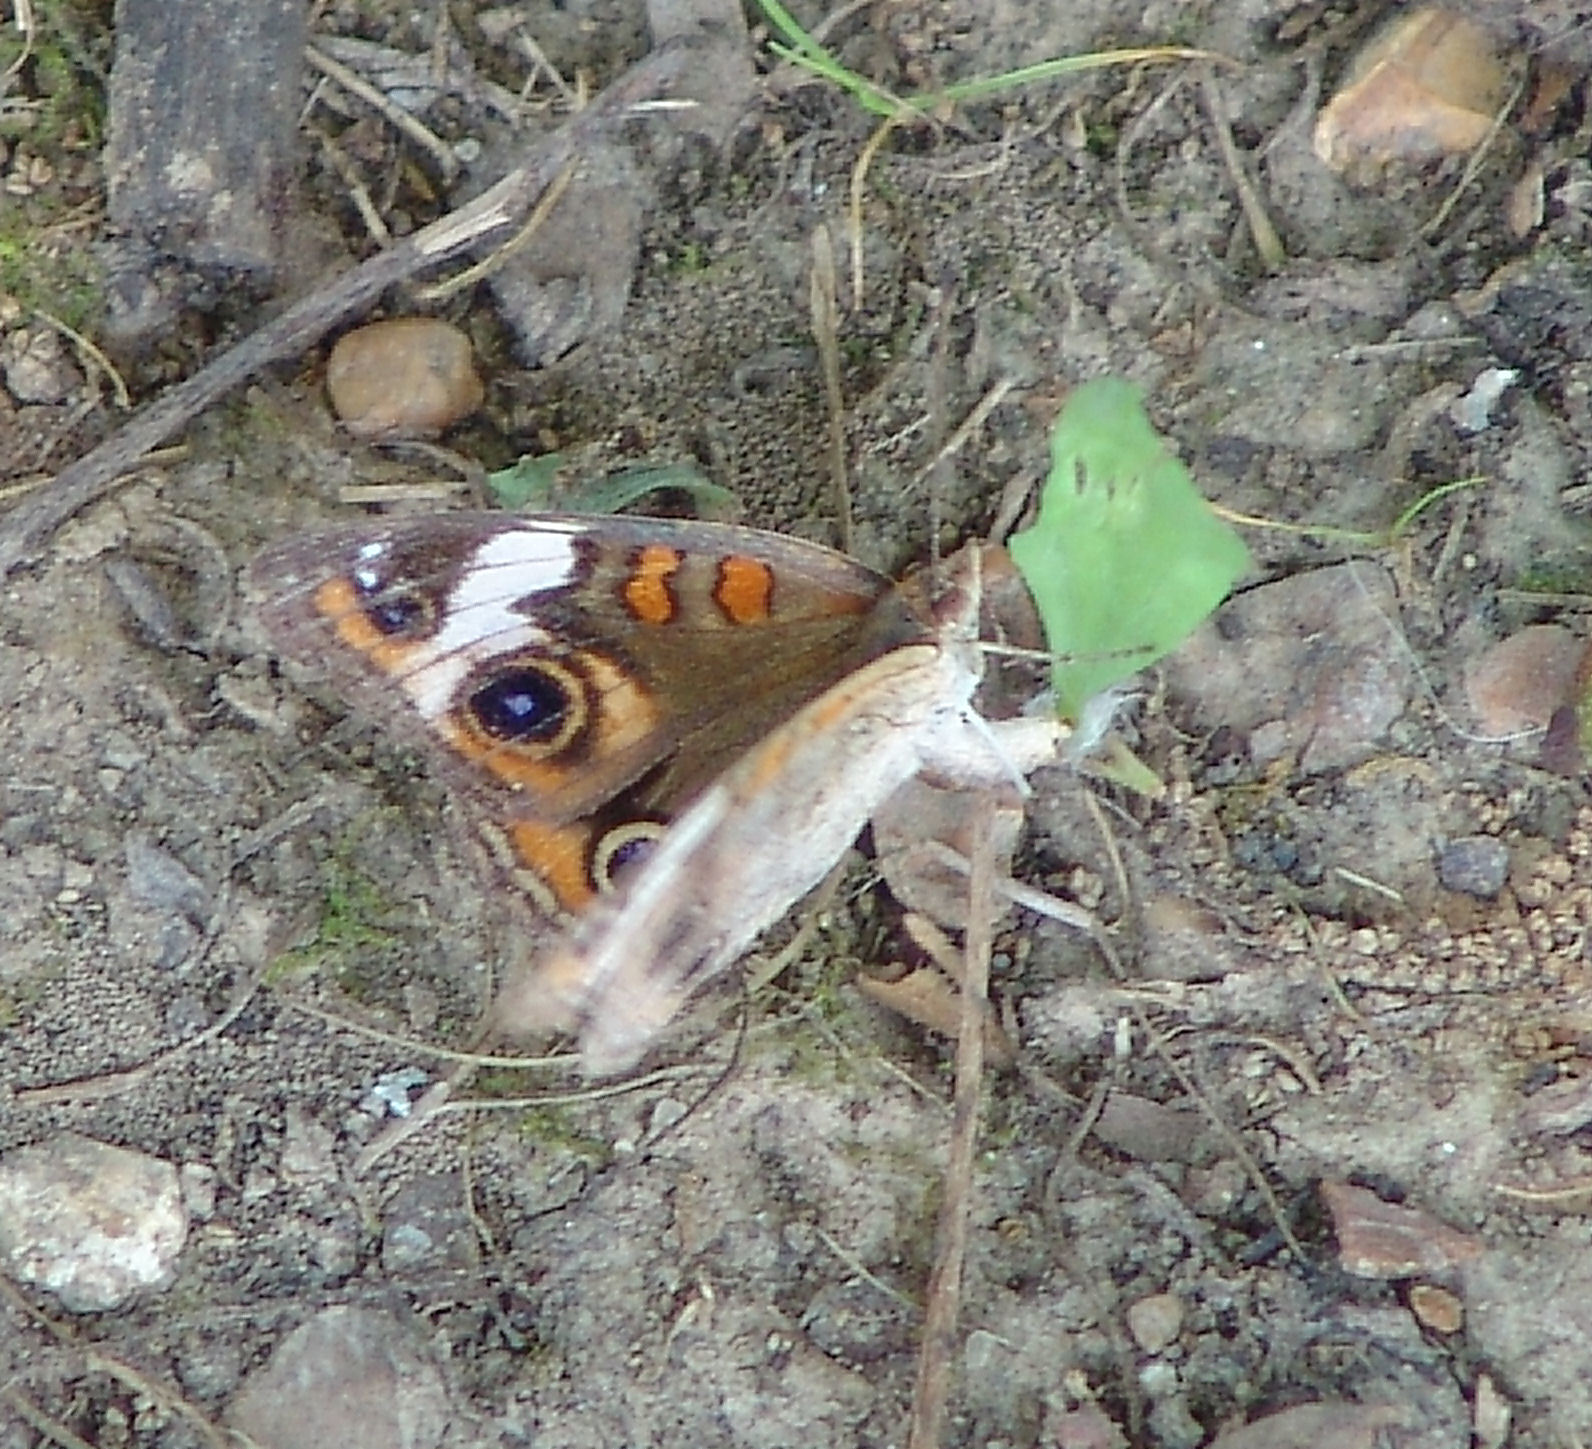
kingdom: Animalia
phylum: Arthropoda
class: Insecta
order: Lepidoptera
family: Nymphalidae
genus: Junonia
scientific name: Junonia coenia
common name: Common buckeye
